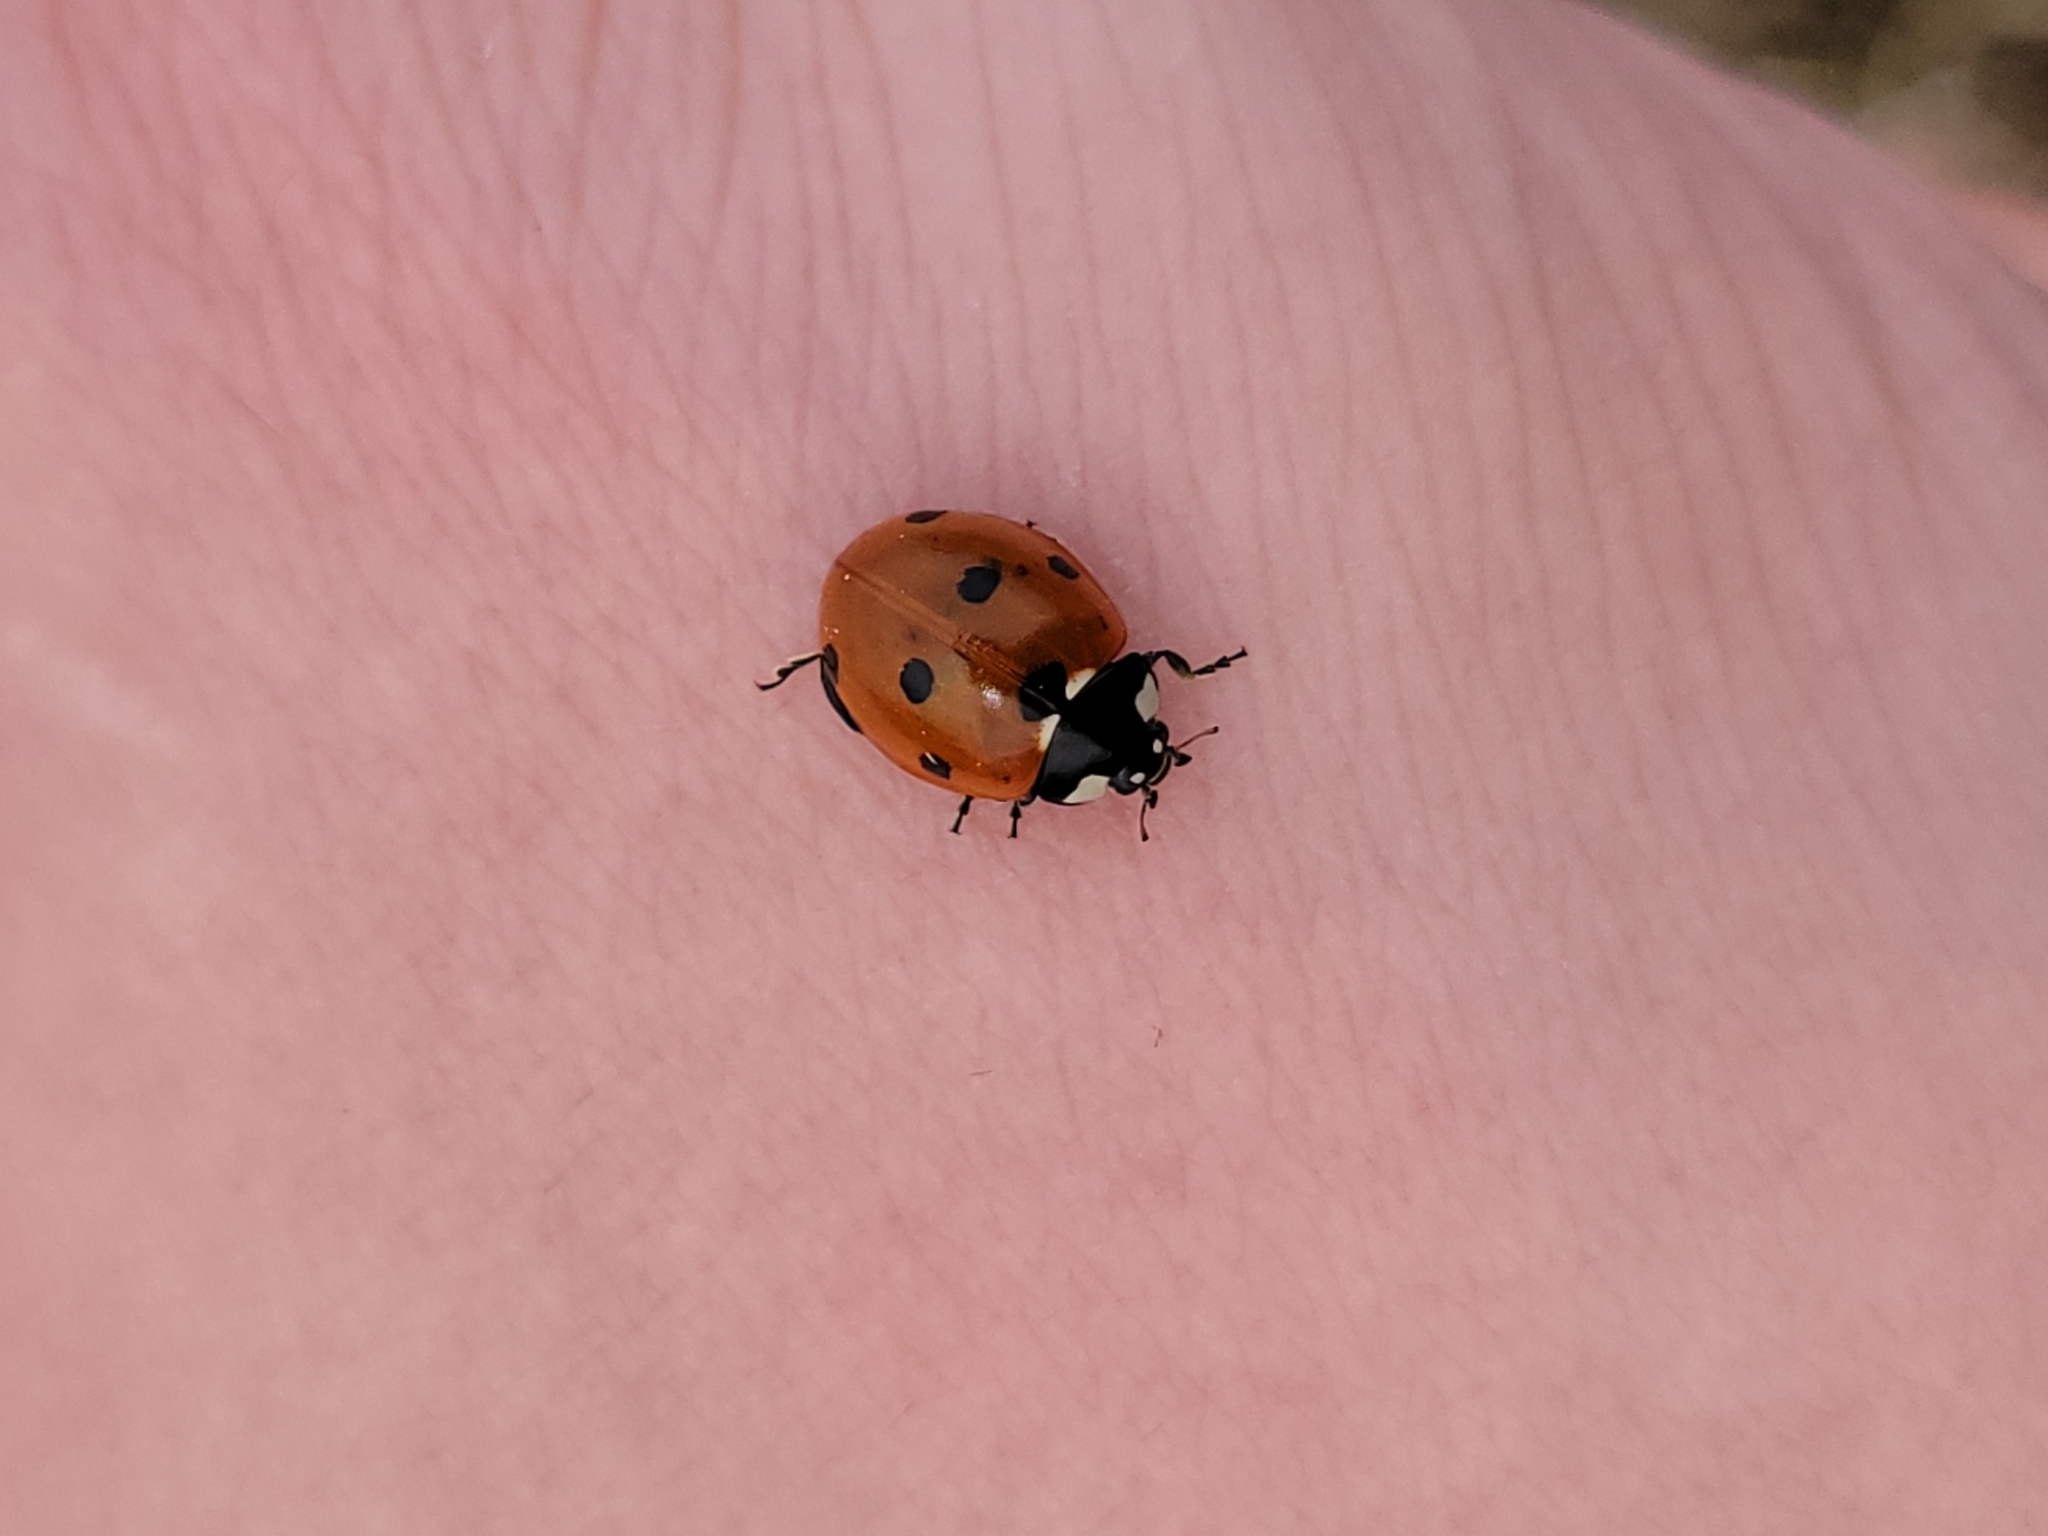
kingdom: Animalia
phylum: Arthropoda
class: Insecta
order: Coleoptera
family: Coccinellidae
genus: Coccinella
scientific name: Coccinella septempunctata
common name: Sevenspotted lady beetle
